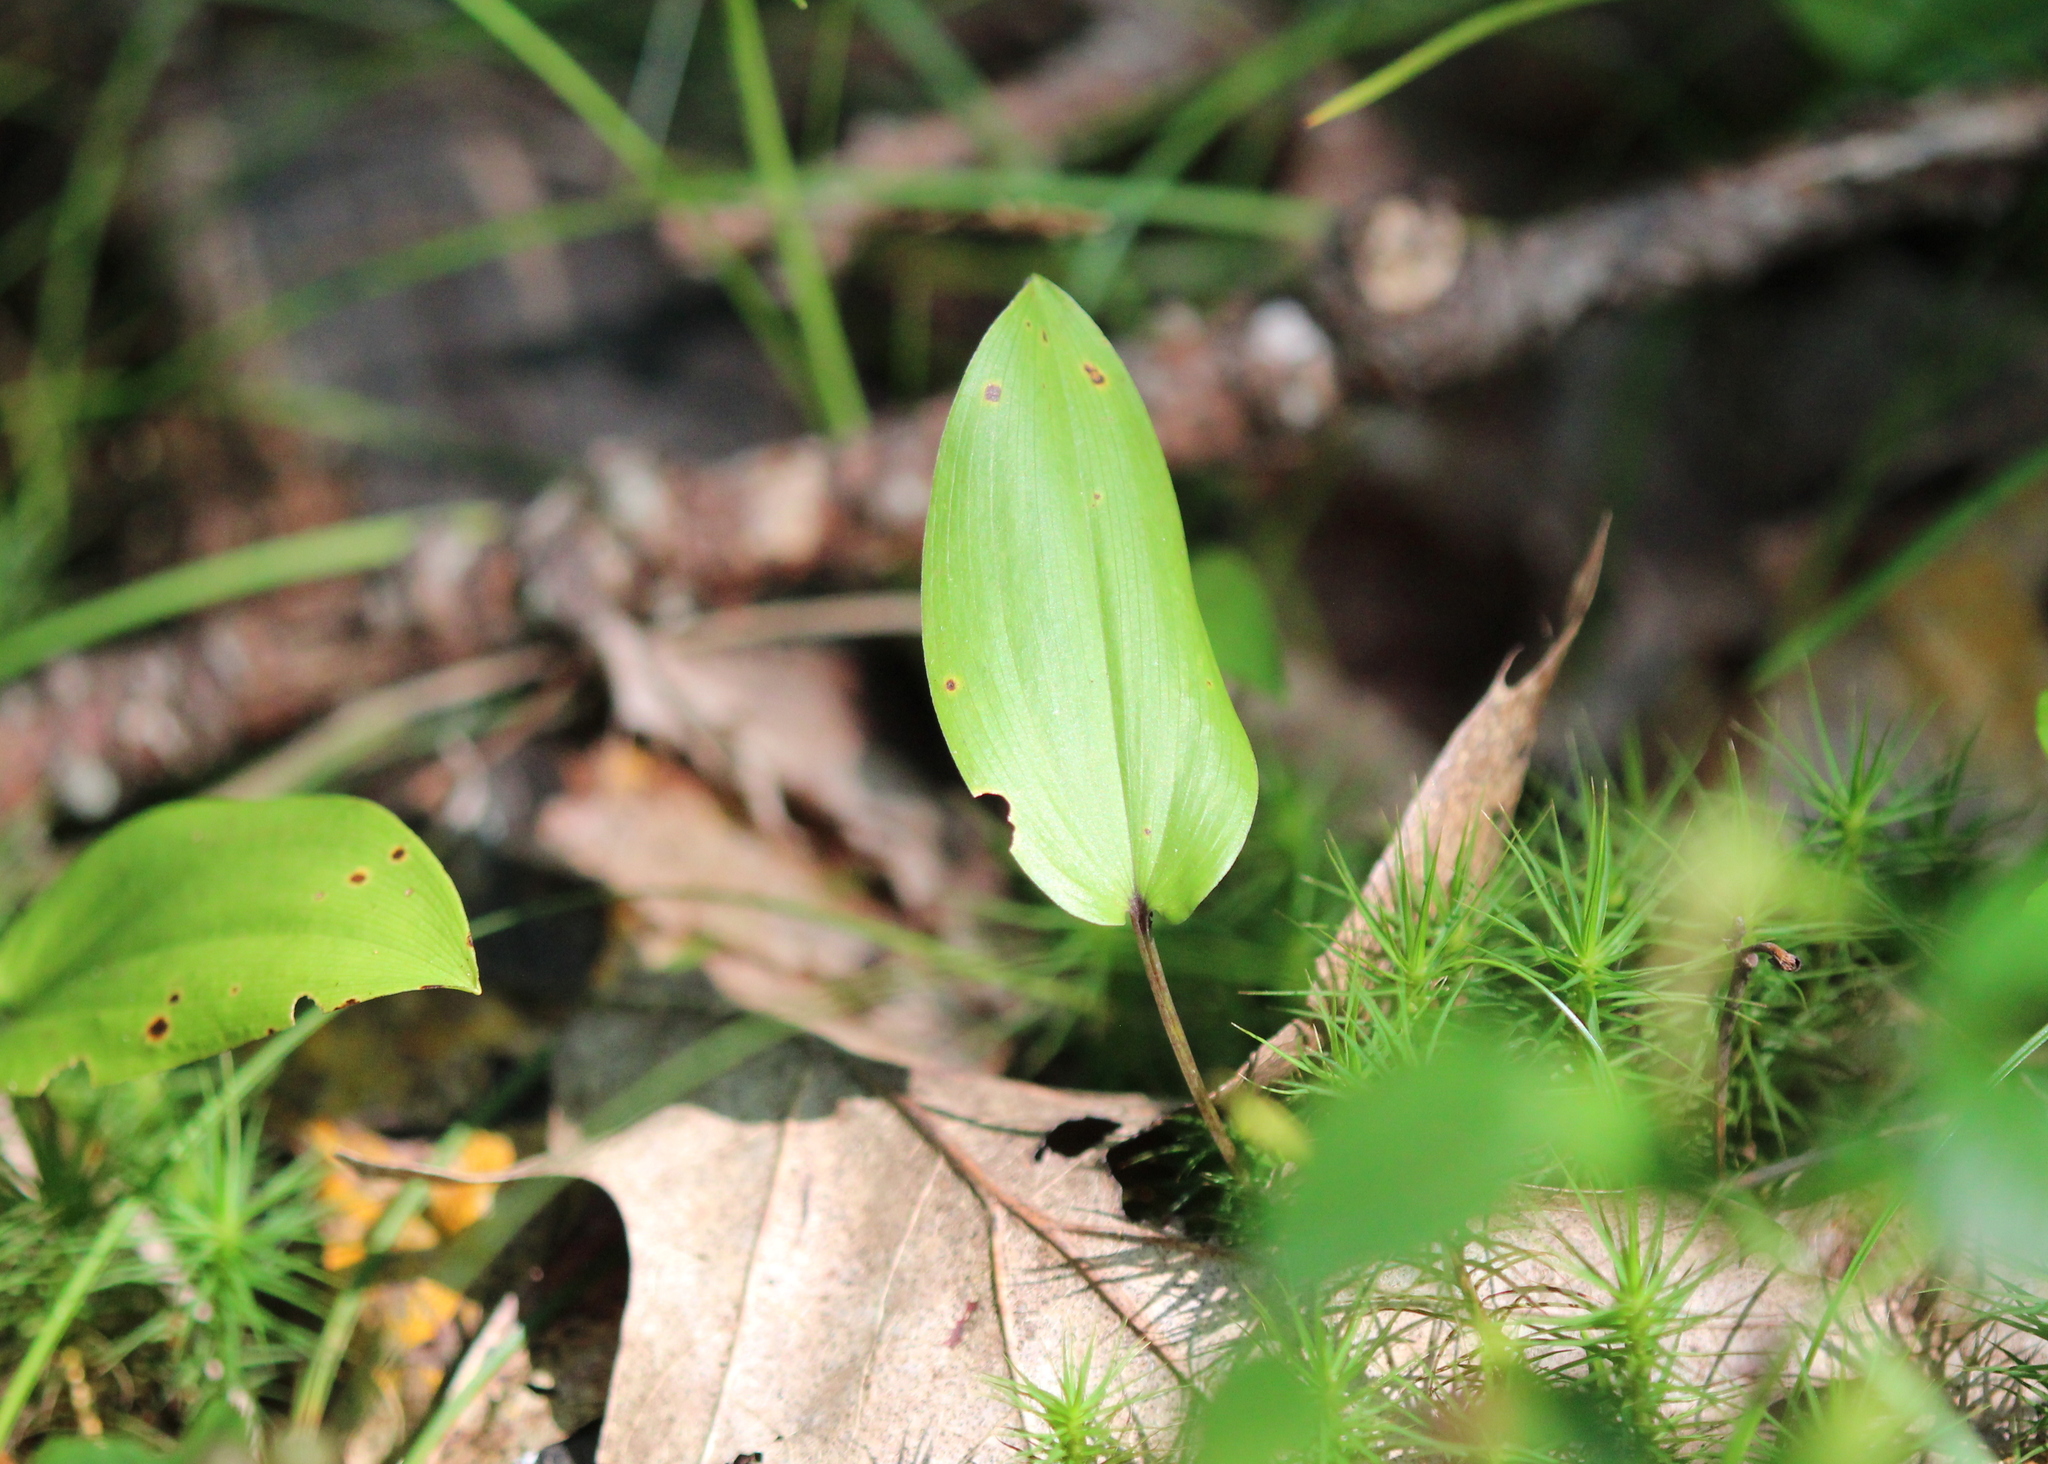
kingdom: Plantae
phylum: Tracheophyta
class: Liliopsida
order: Asparagales
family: Asparagaceae
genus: Maianthemum
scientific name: Maianthemum canadense
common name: False lily-of-the-valley
